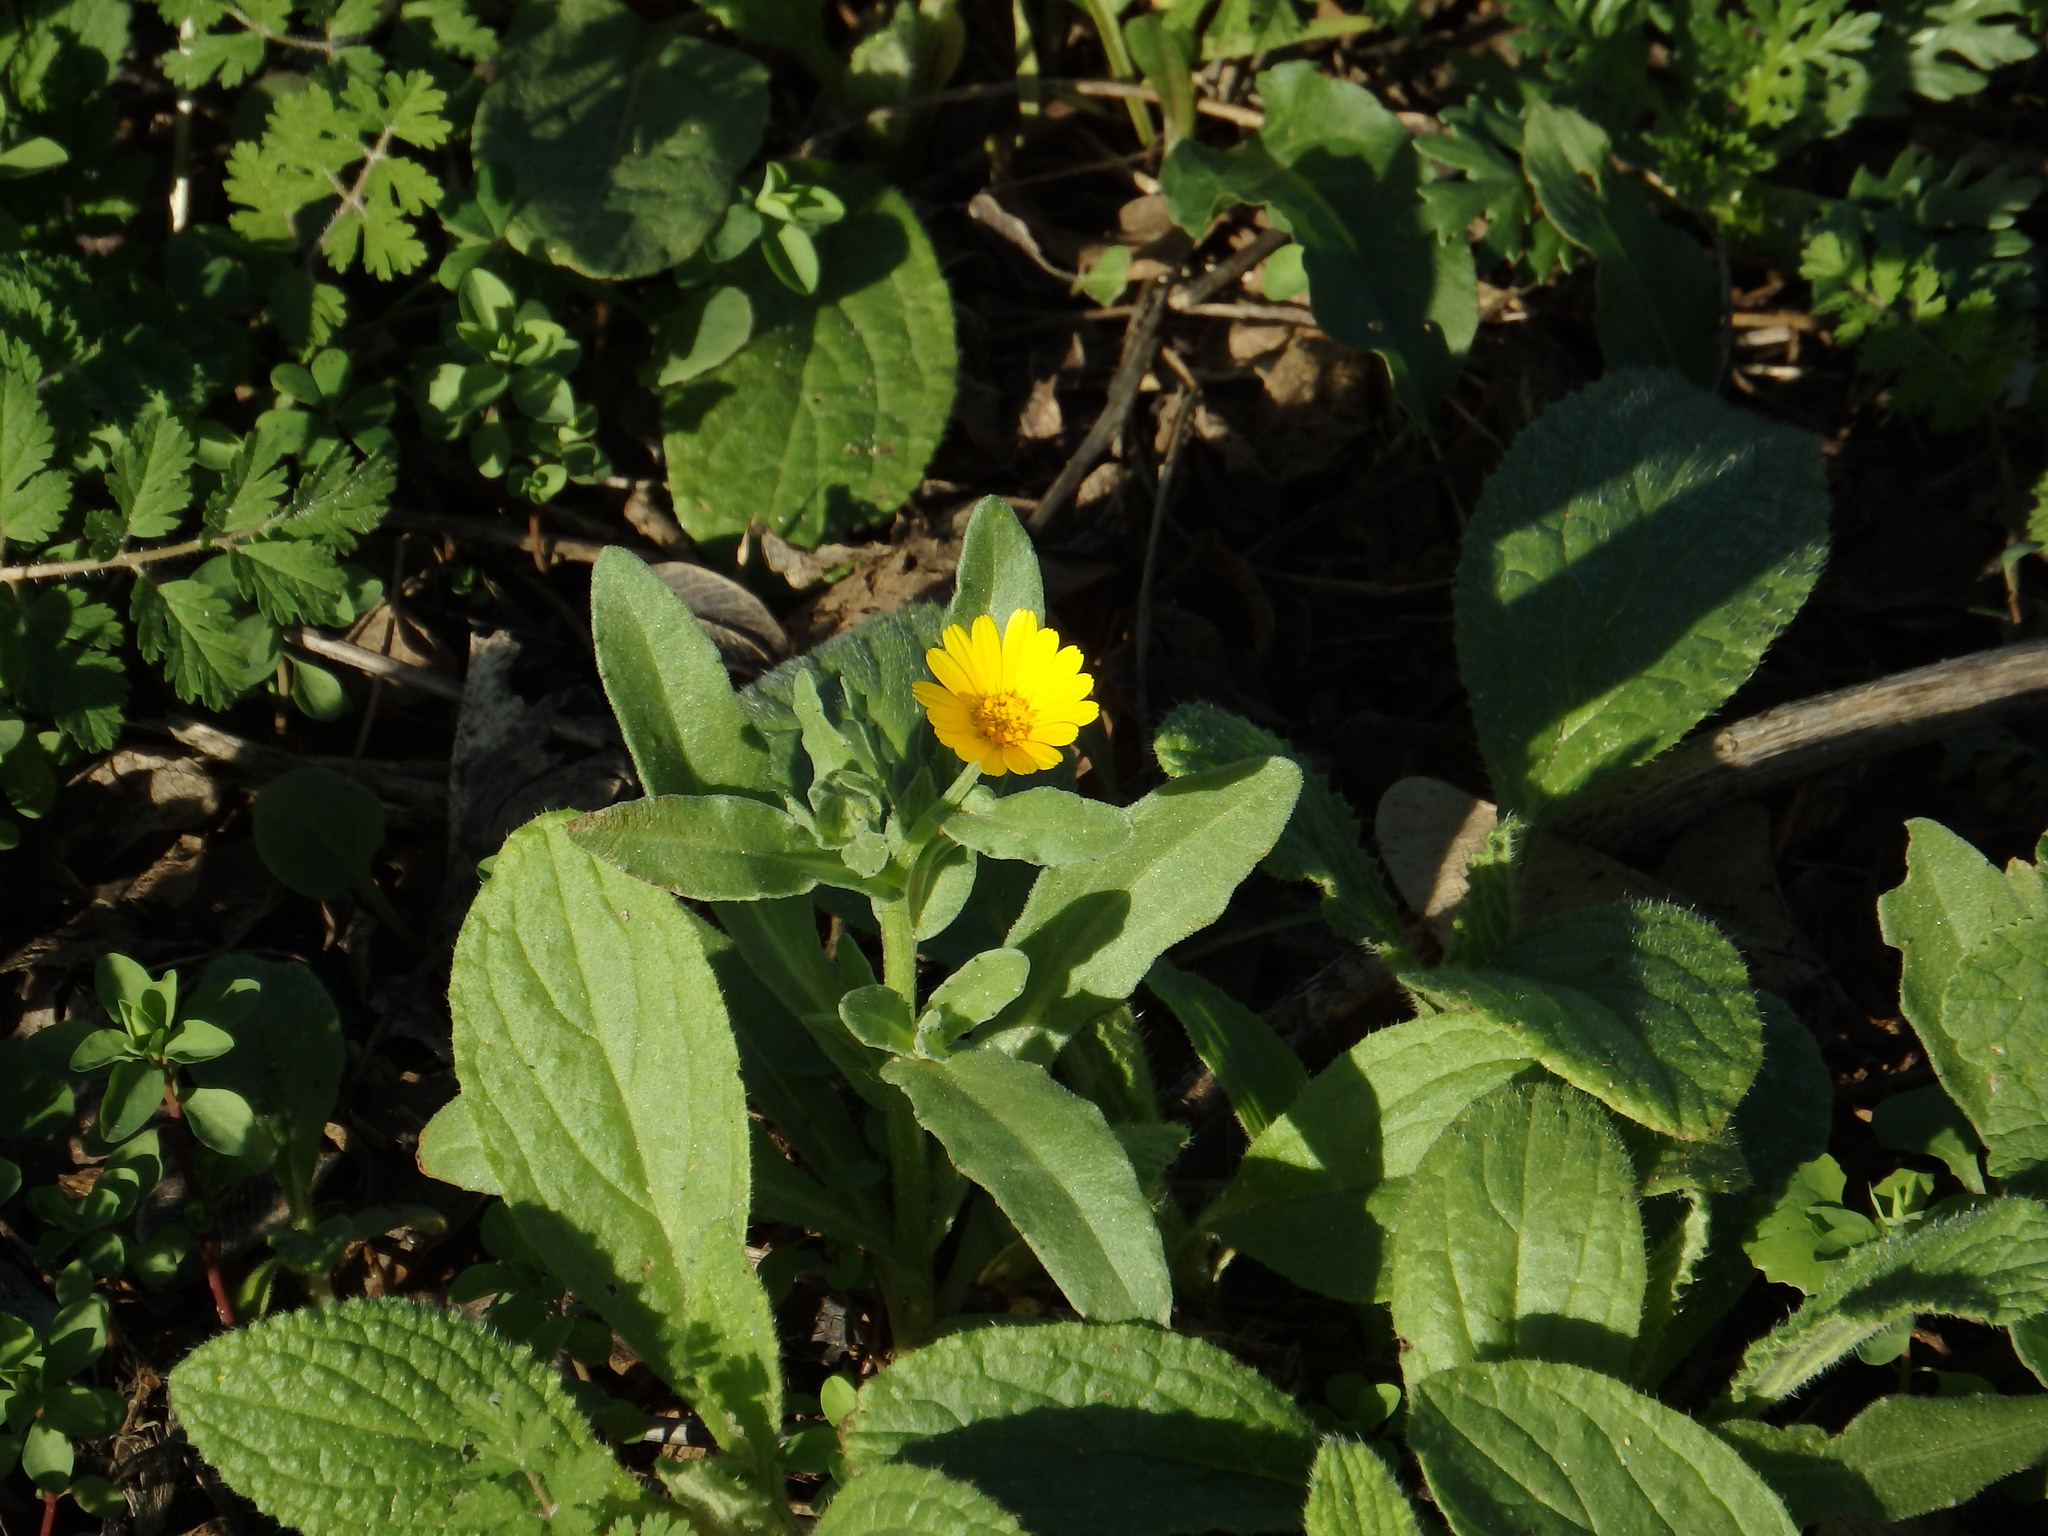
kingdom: Plantae
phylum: Tracheophyta
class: Magnoliopsida
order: Asterales
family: Asteraceae
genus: Calendula
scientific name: Calendula arvensis
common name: Field marigold
